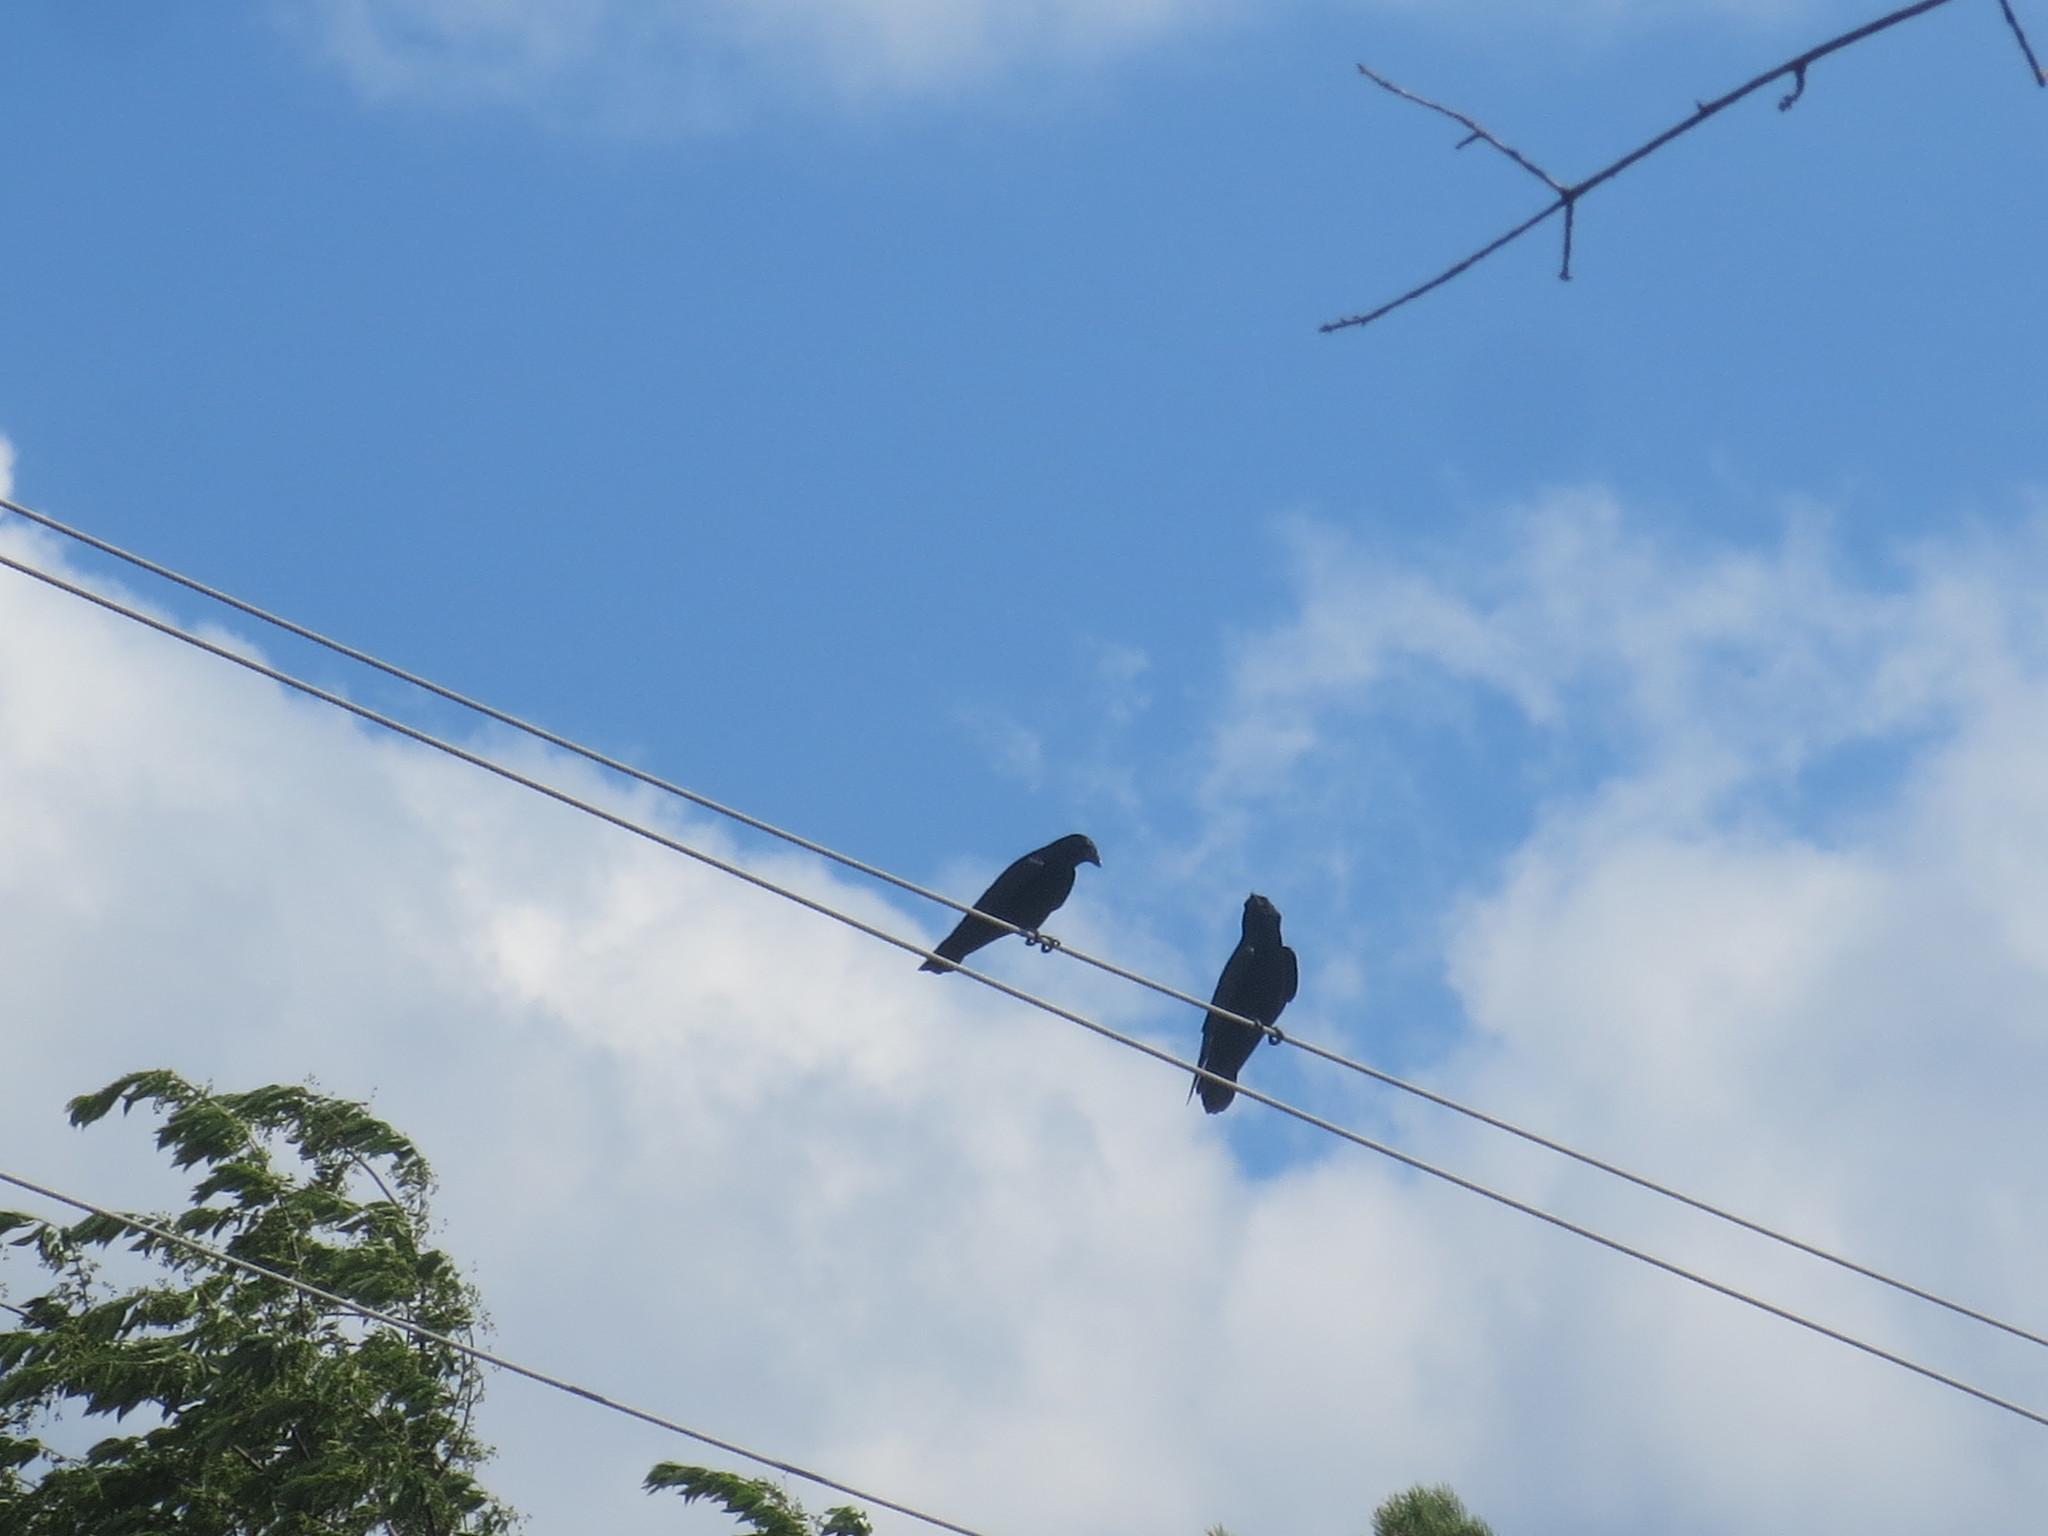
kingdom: Animalia
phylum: Chordata
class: Aves
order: Passeriformes
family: Corvidae
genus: Corvus
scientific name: Corvus brachyrhynchos
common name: American crow
